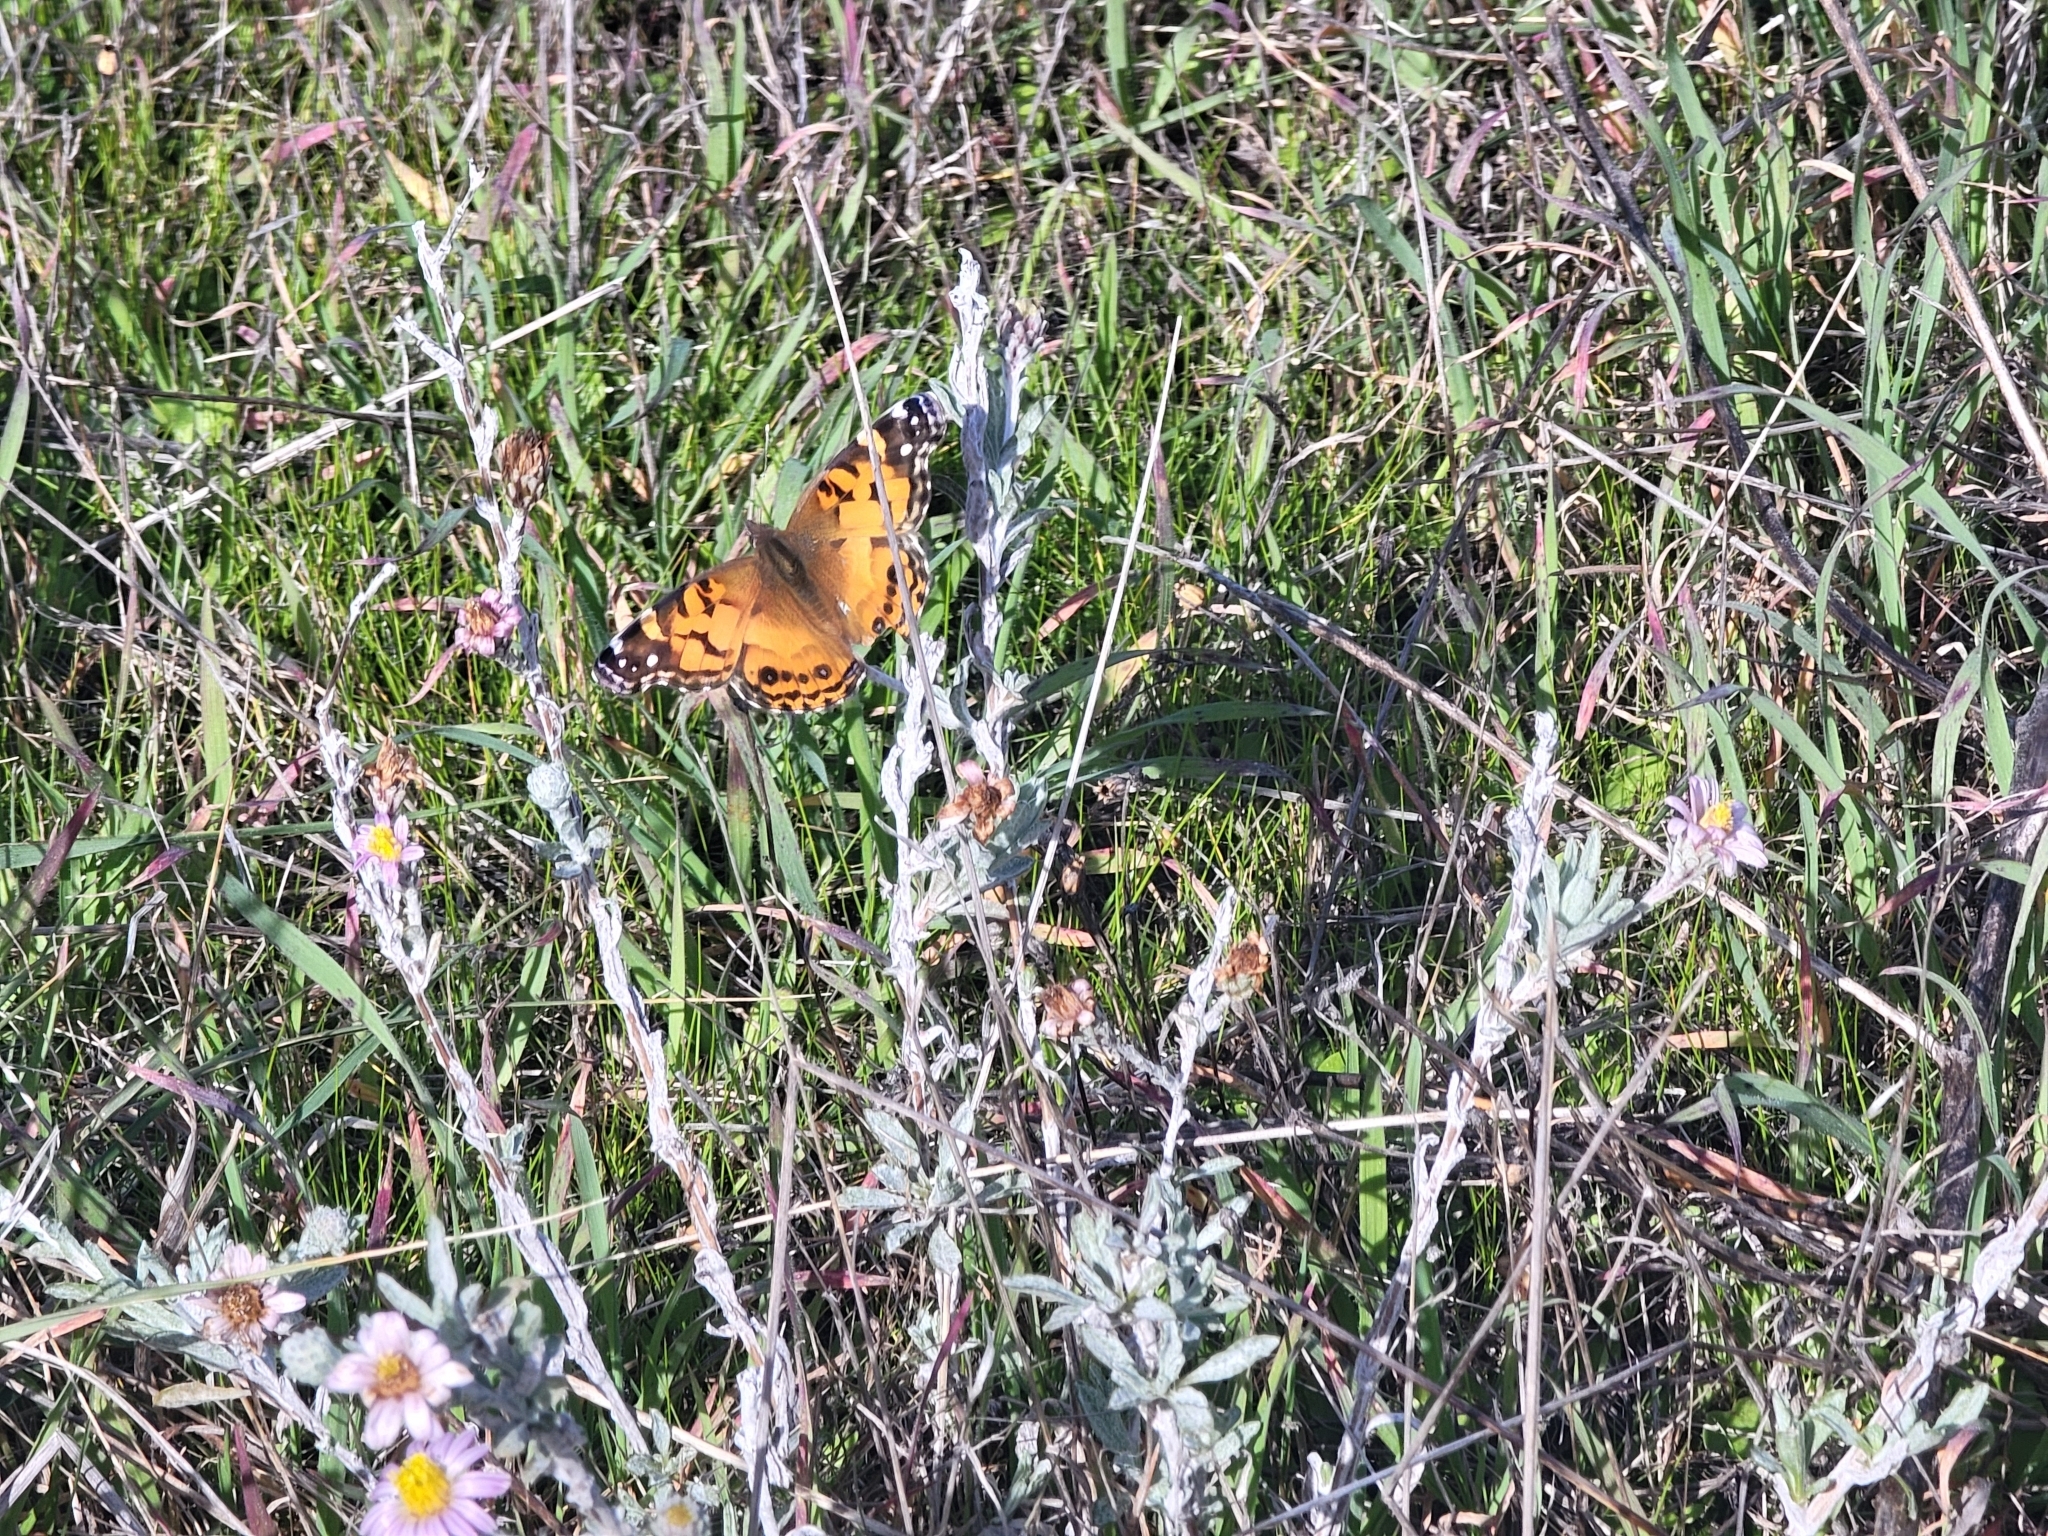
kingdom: Animalia
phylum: Arthropoda
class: Insecta
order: Lepidoptera
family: Nymphalidae
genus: Vanessa
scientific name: Vanessa virginiensis
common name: American lady
